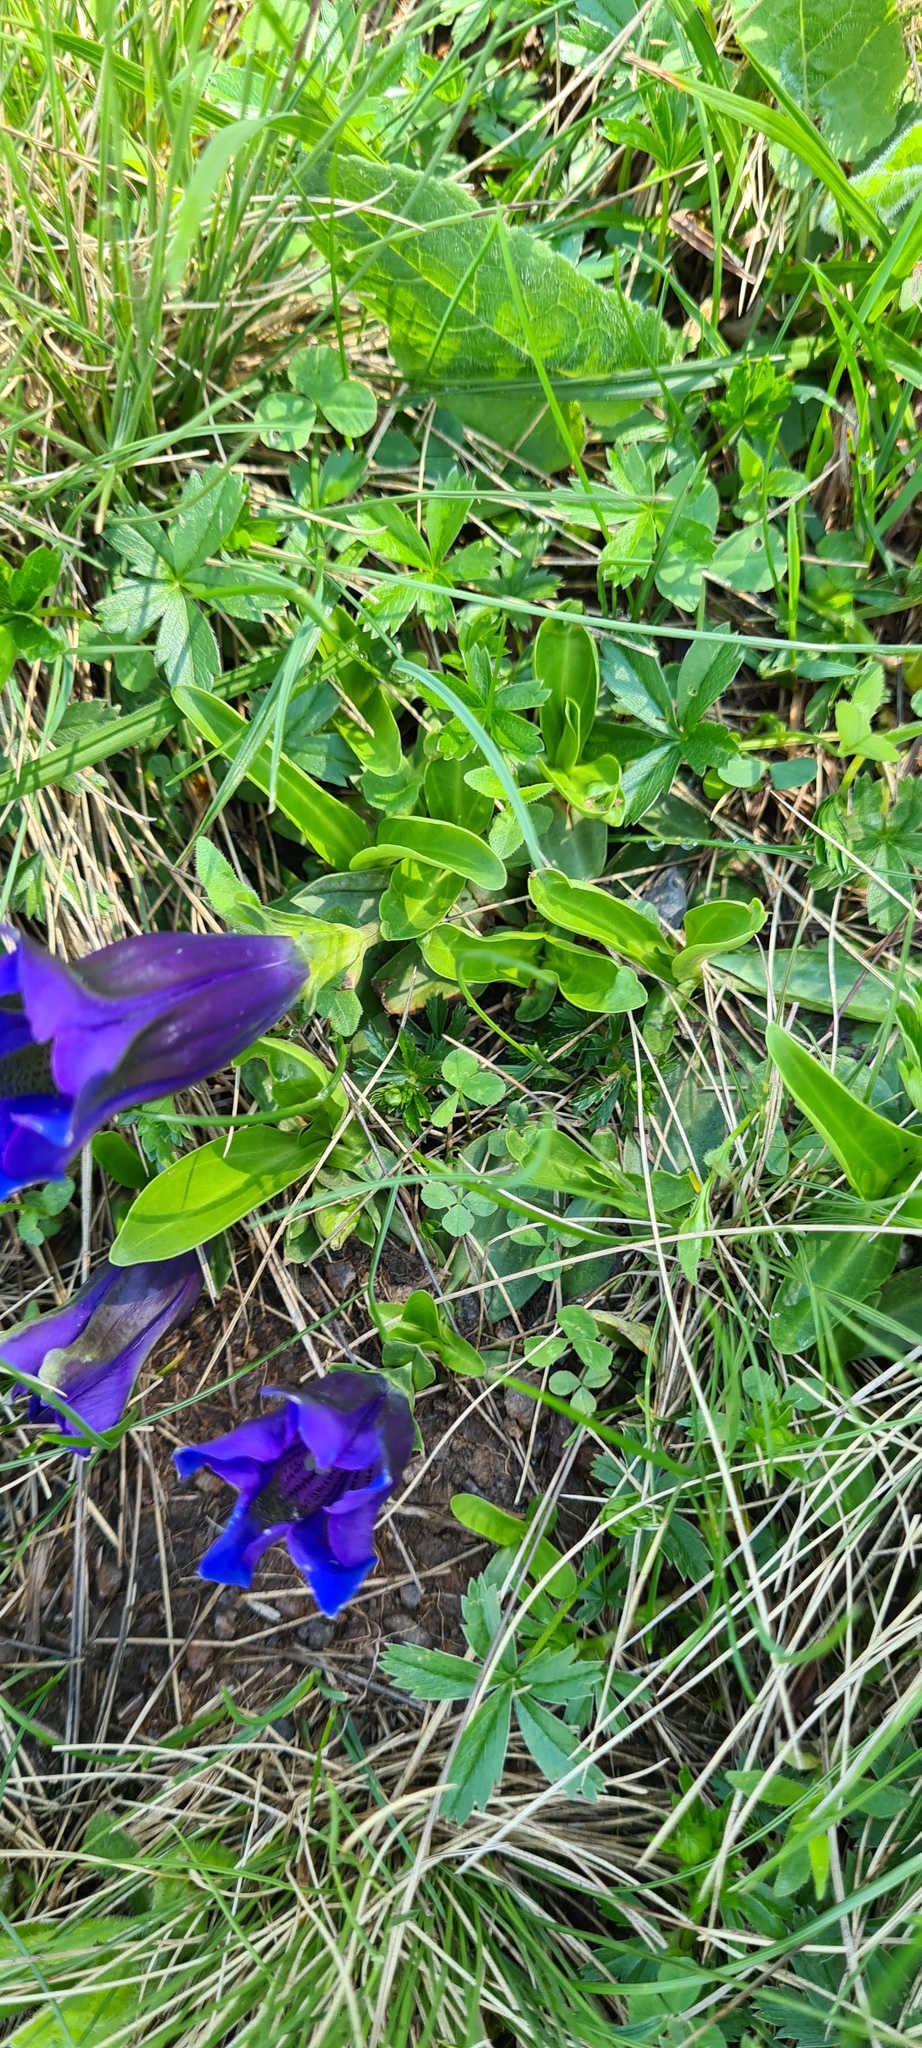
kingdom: Plantae
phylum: Tracheophyta
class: Magnoliopsida
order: Gentianales
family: Gentianaceae
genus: Gentiana
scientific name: Gentiana acaulis
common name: Trumpet gentian
